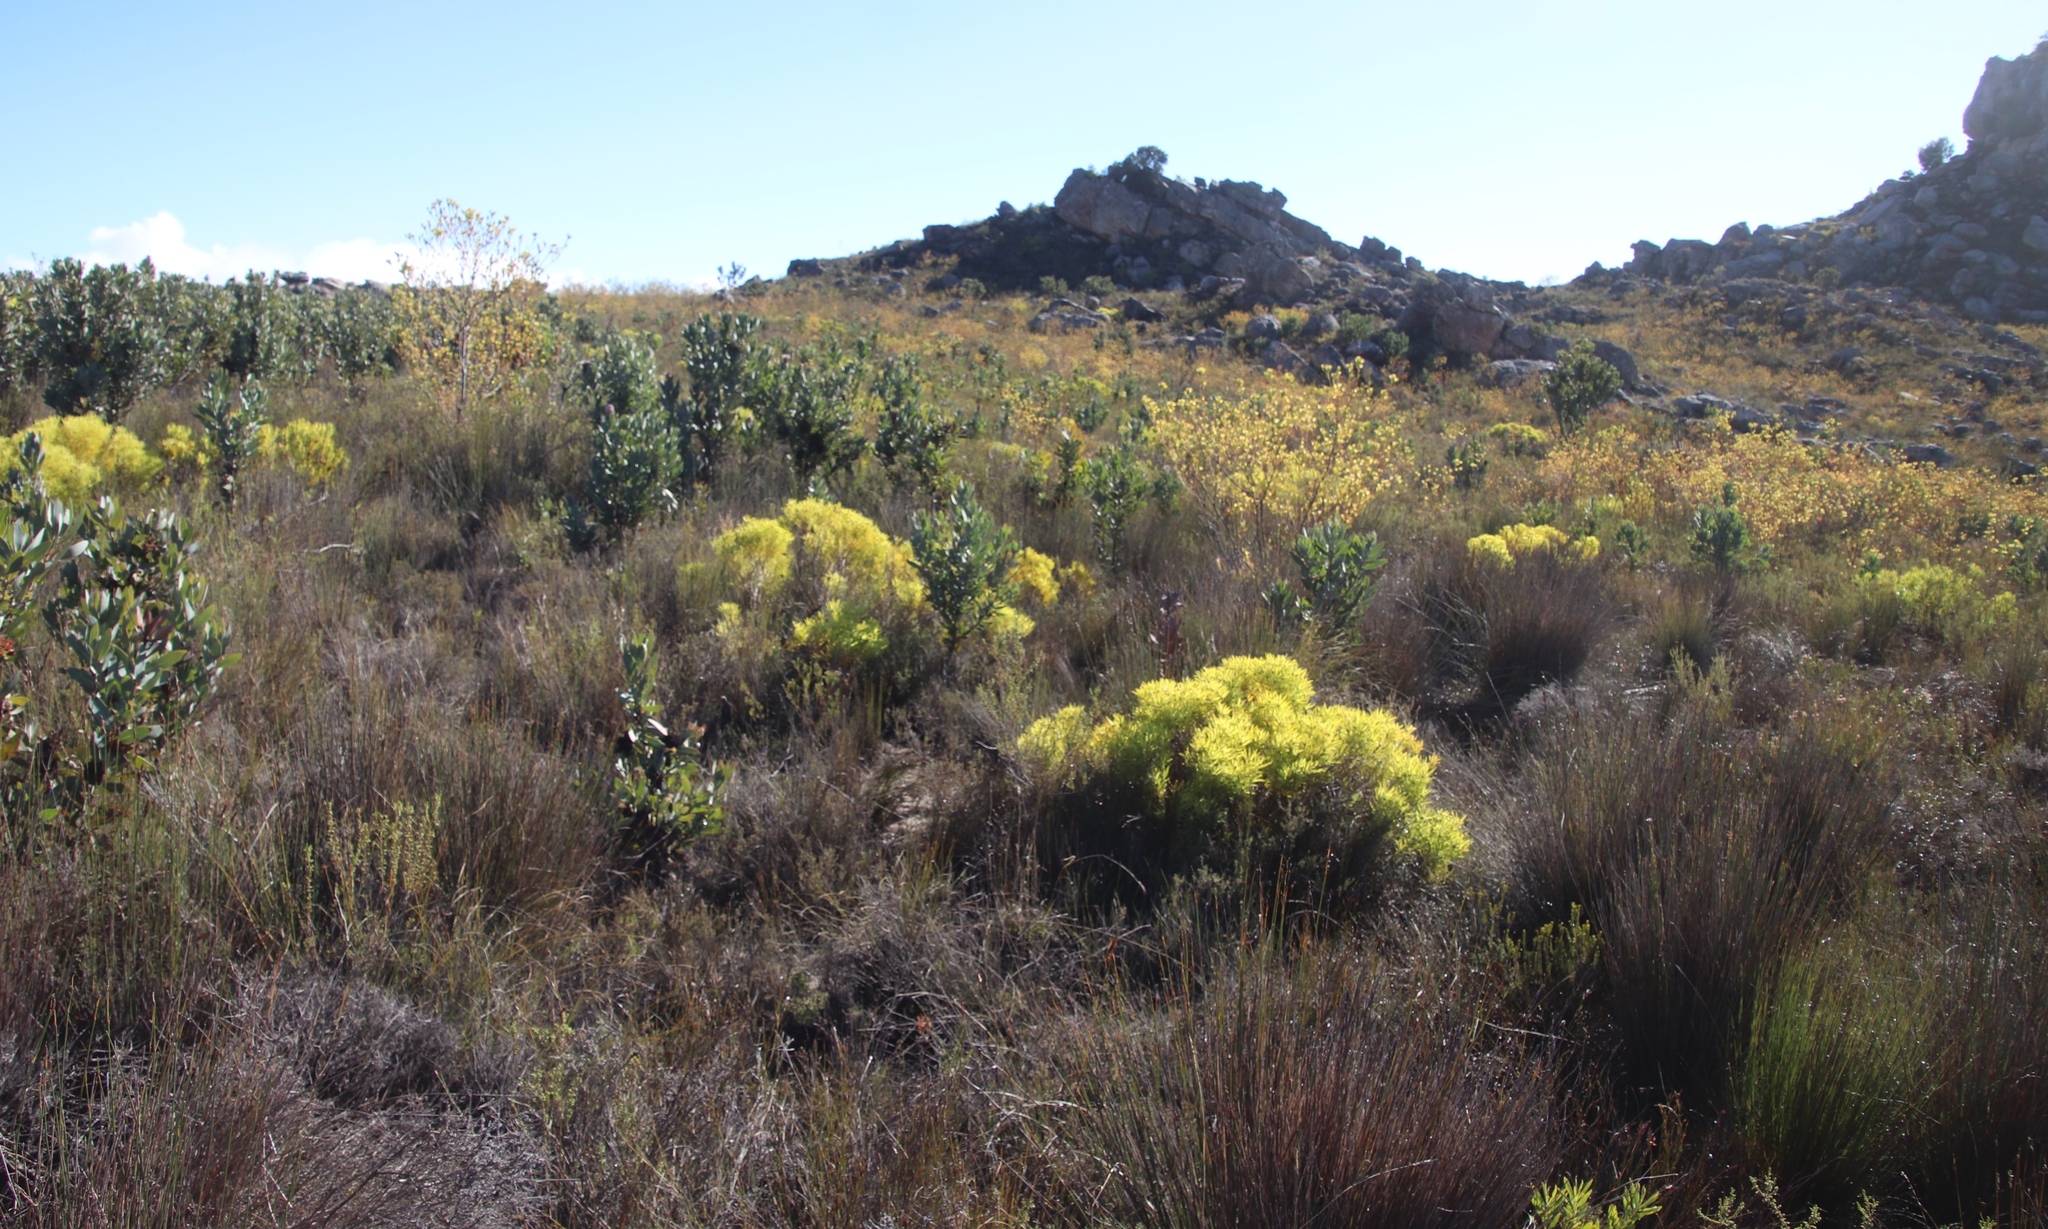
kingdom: Plantae
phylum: Tracheophyta
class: Magnoliopsida
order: Proteales
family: Proteaceae
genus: Leucadendron
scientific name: Leucadendron diemontianum
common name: Visgat conebush
